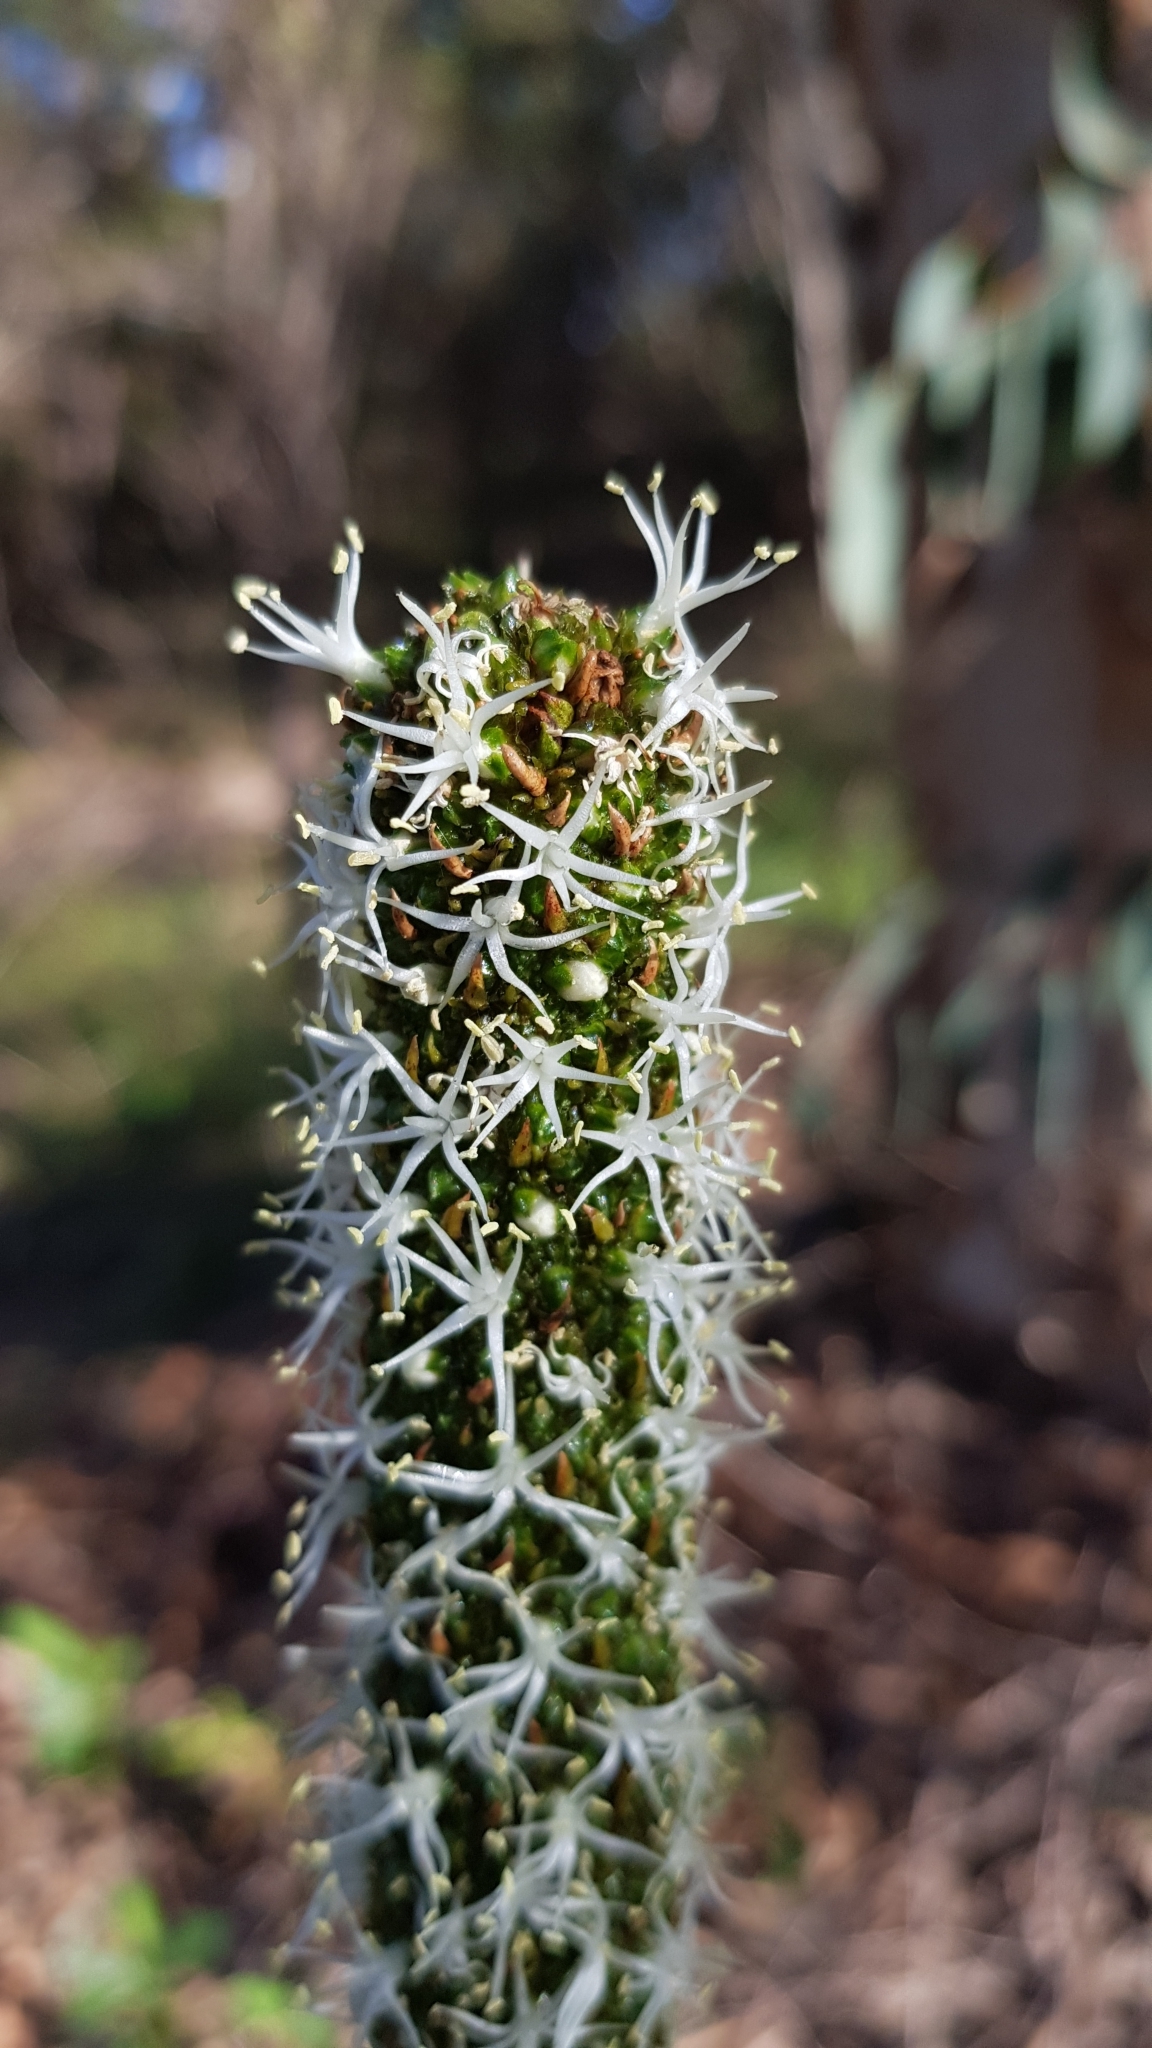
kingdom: Plantae
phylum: Tracheophyta
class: Liliopsida
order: Asparagales
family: Asphodelaceae
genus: Xanthorrhoea
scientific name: Xanthorrhoea minor
